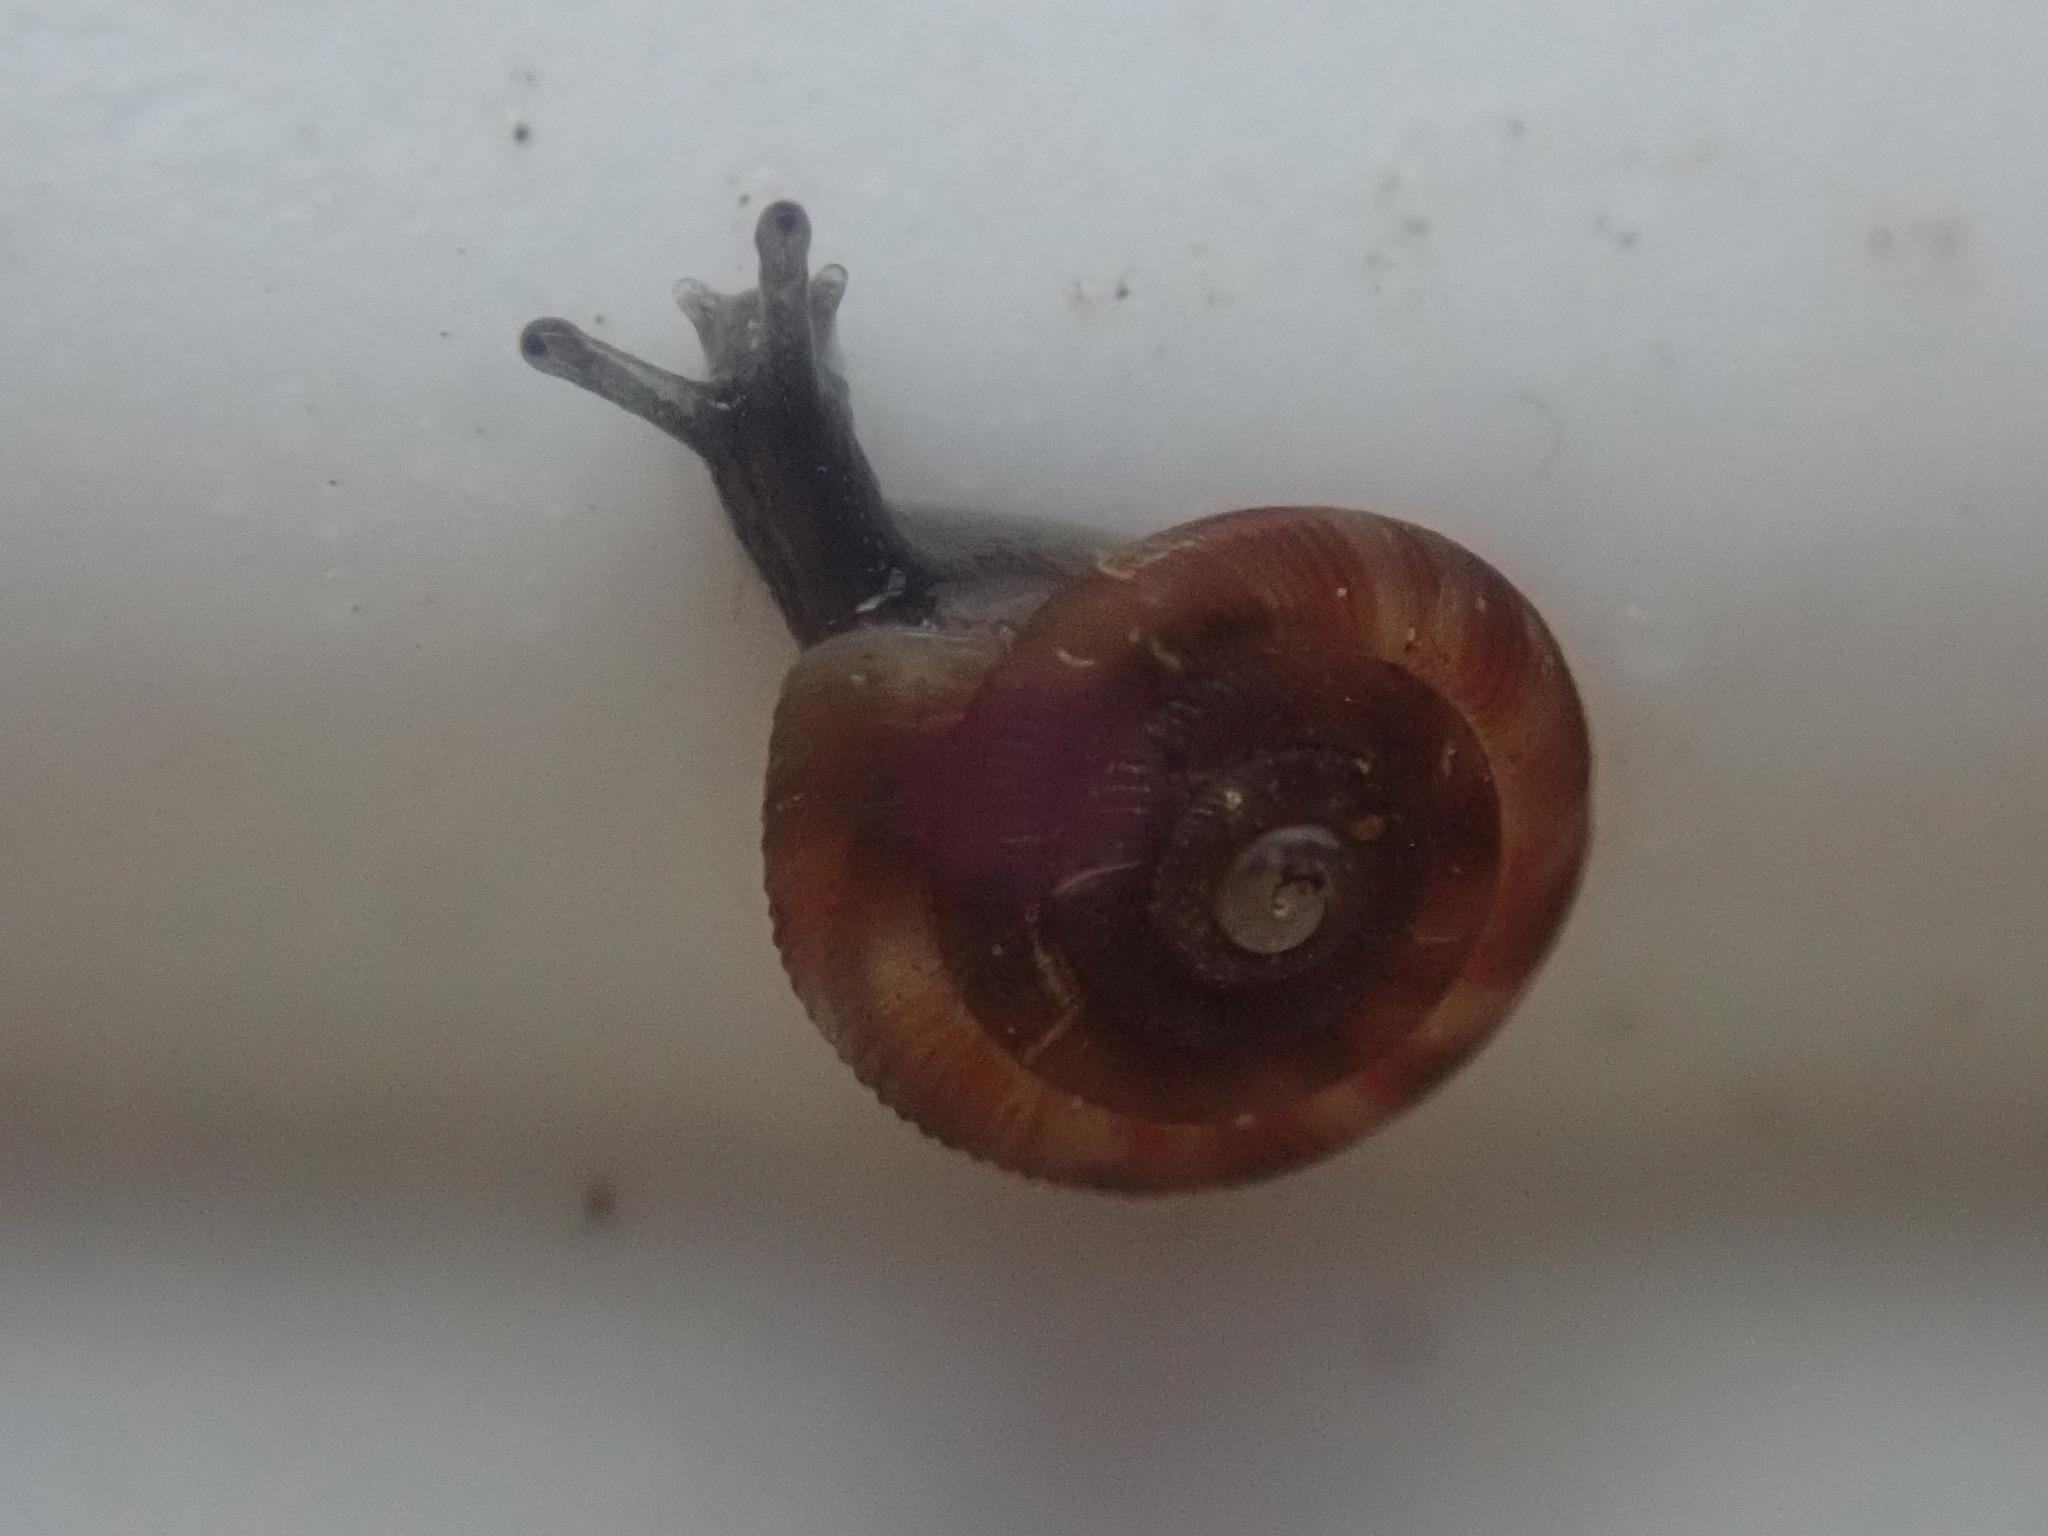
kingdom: Animalia
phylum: Mollusca
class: Gastropoda
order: Stylommatophora
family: Discidae
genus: Discus
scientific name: Discus rotundatus
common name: Rounded snail
